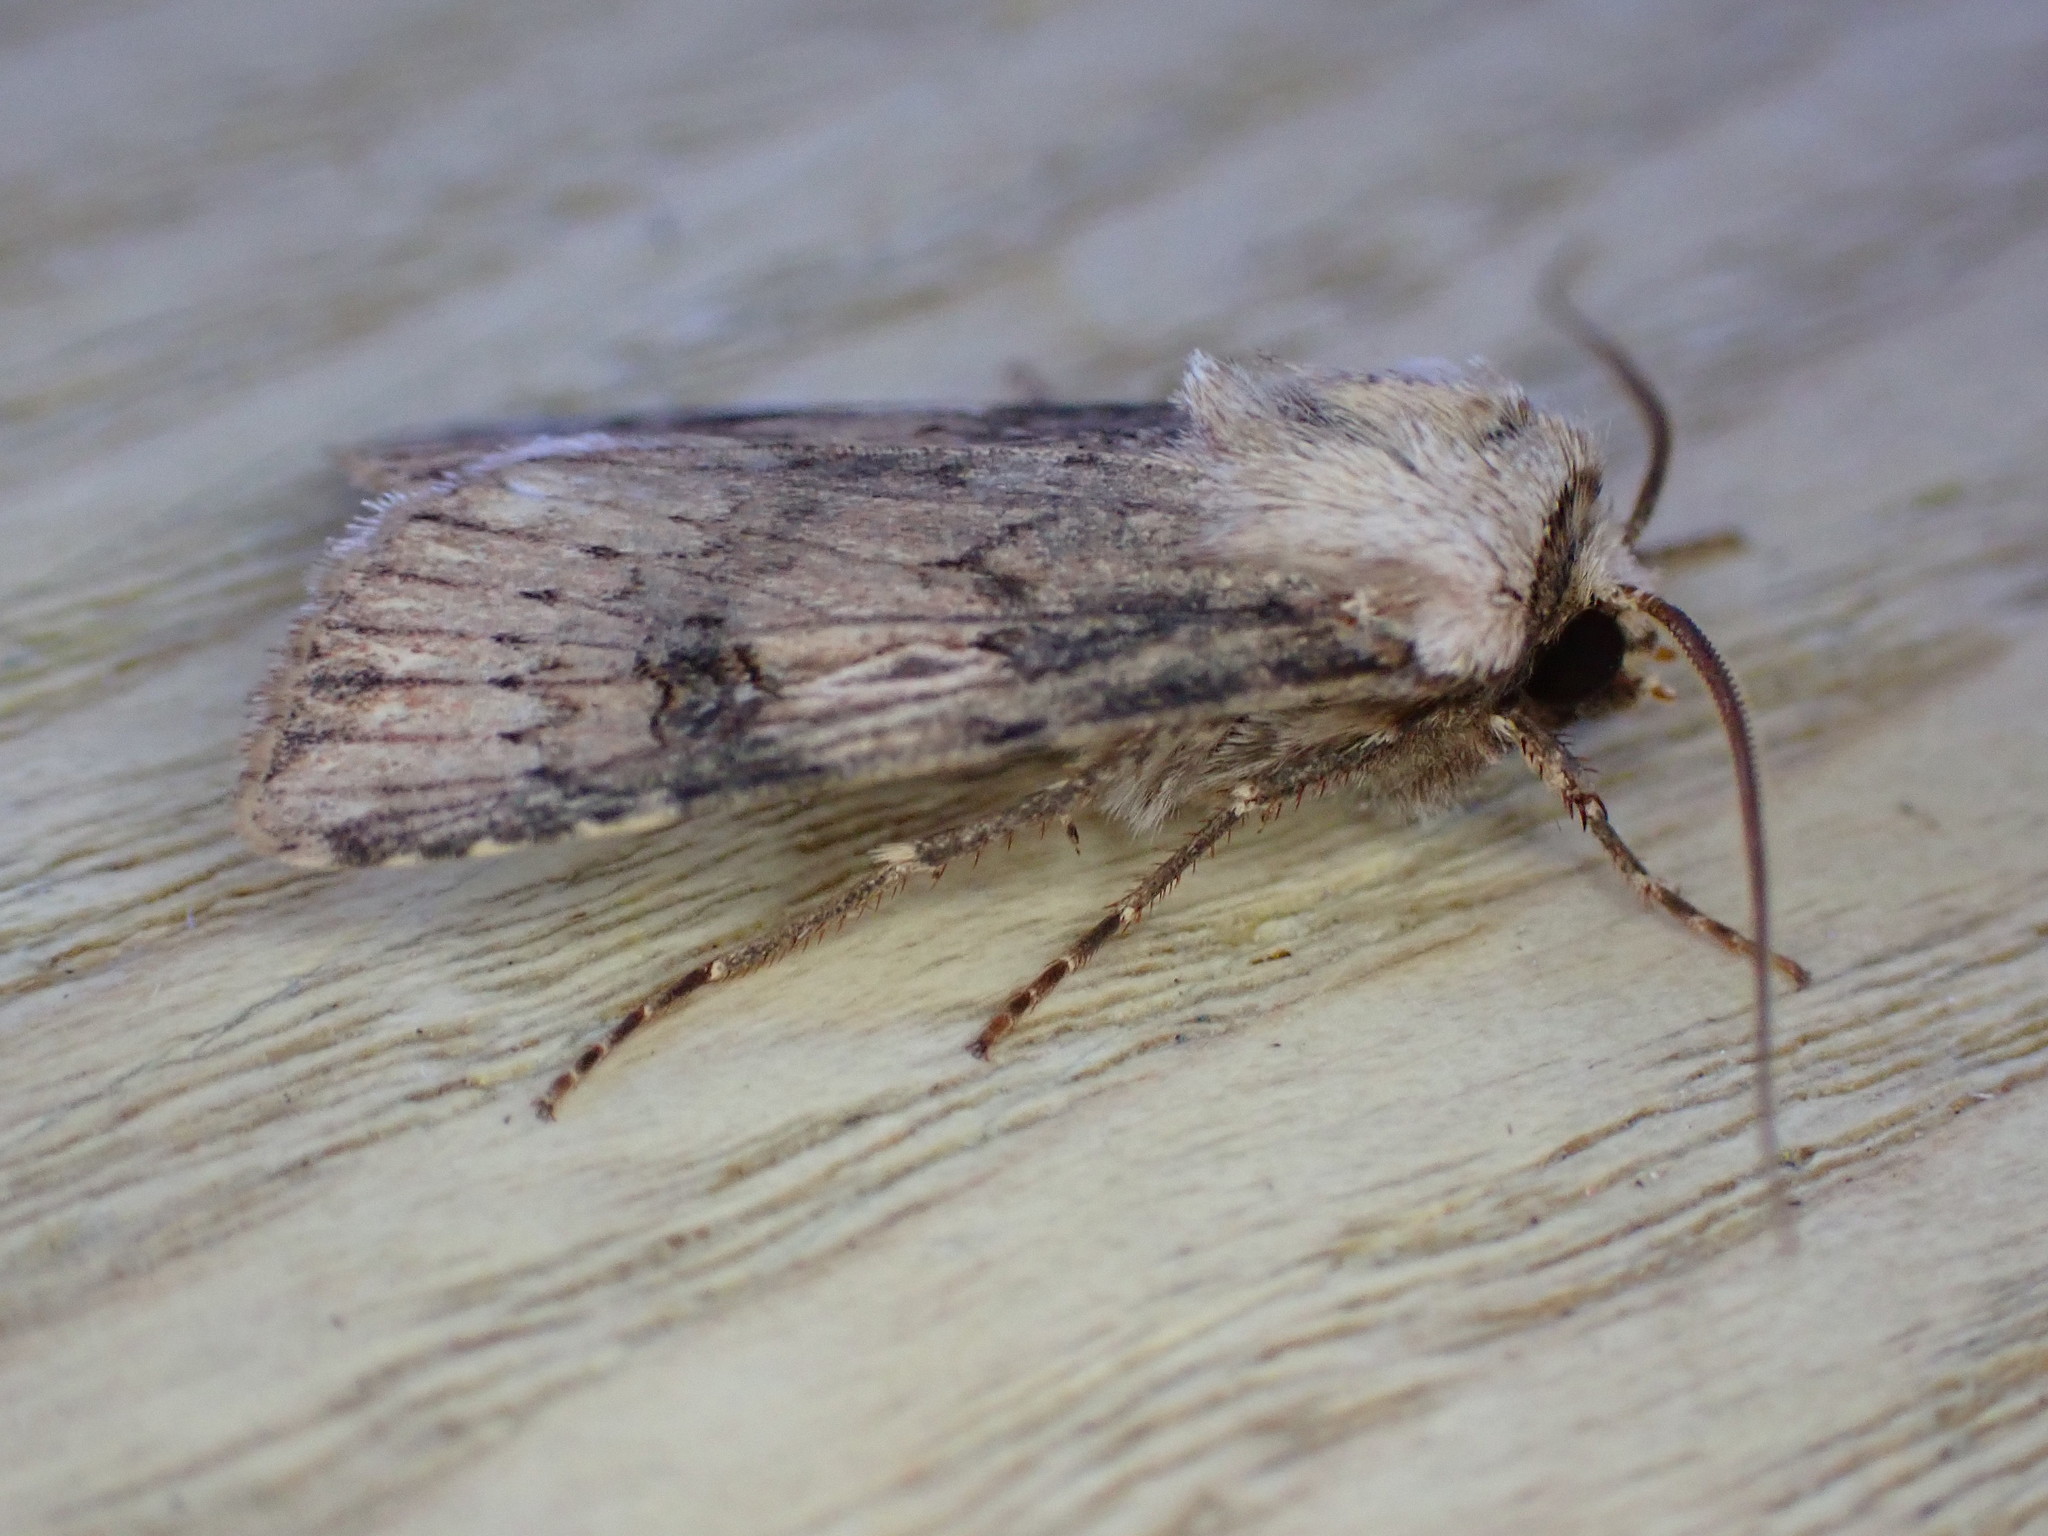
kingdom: Animalia
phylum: Arthropoda
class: Insecta
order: Lepidoptera
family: Noctuidae
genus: Agrotis
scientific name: Agrotis puta
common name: Shuttle-shaped dart
